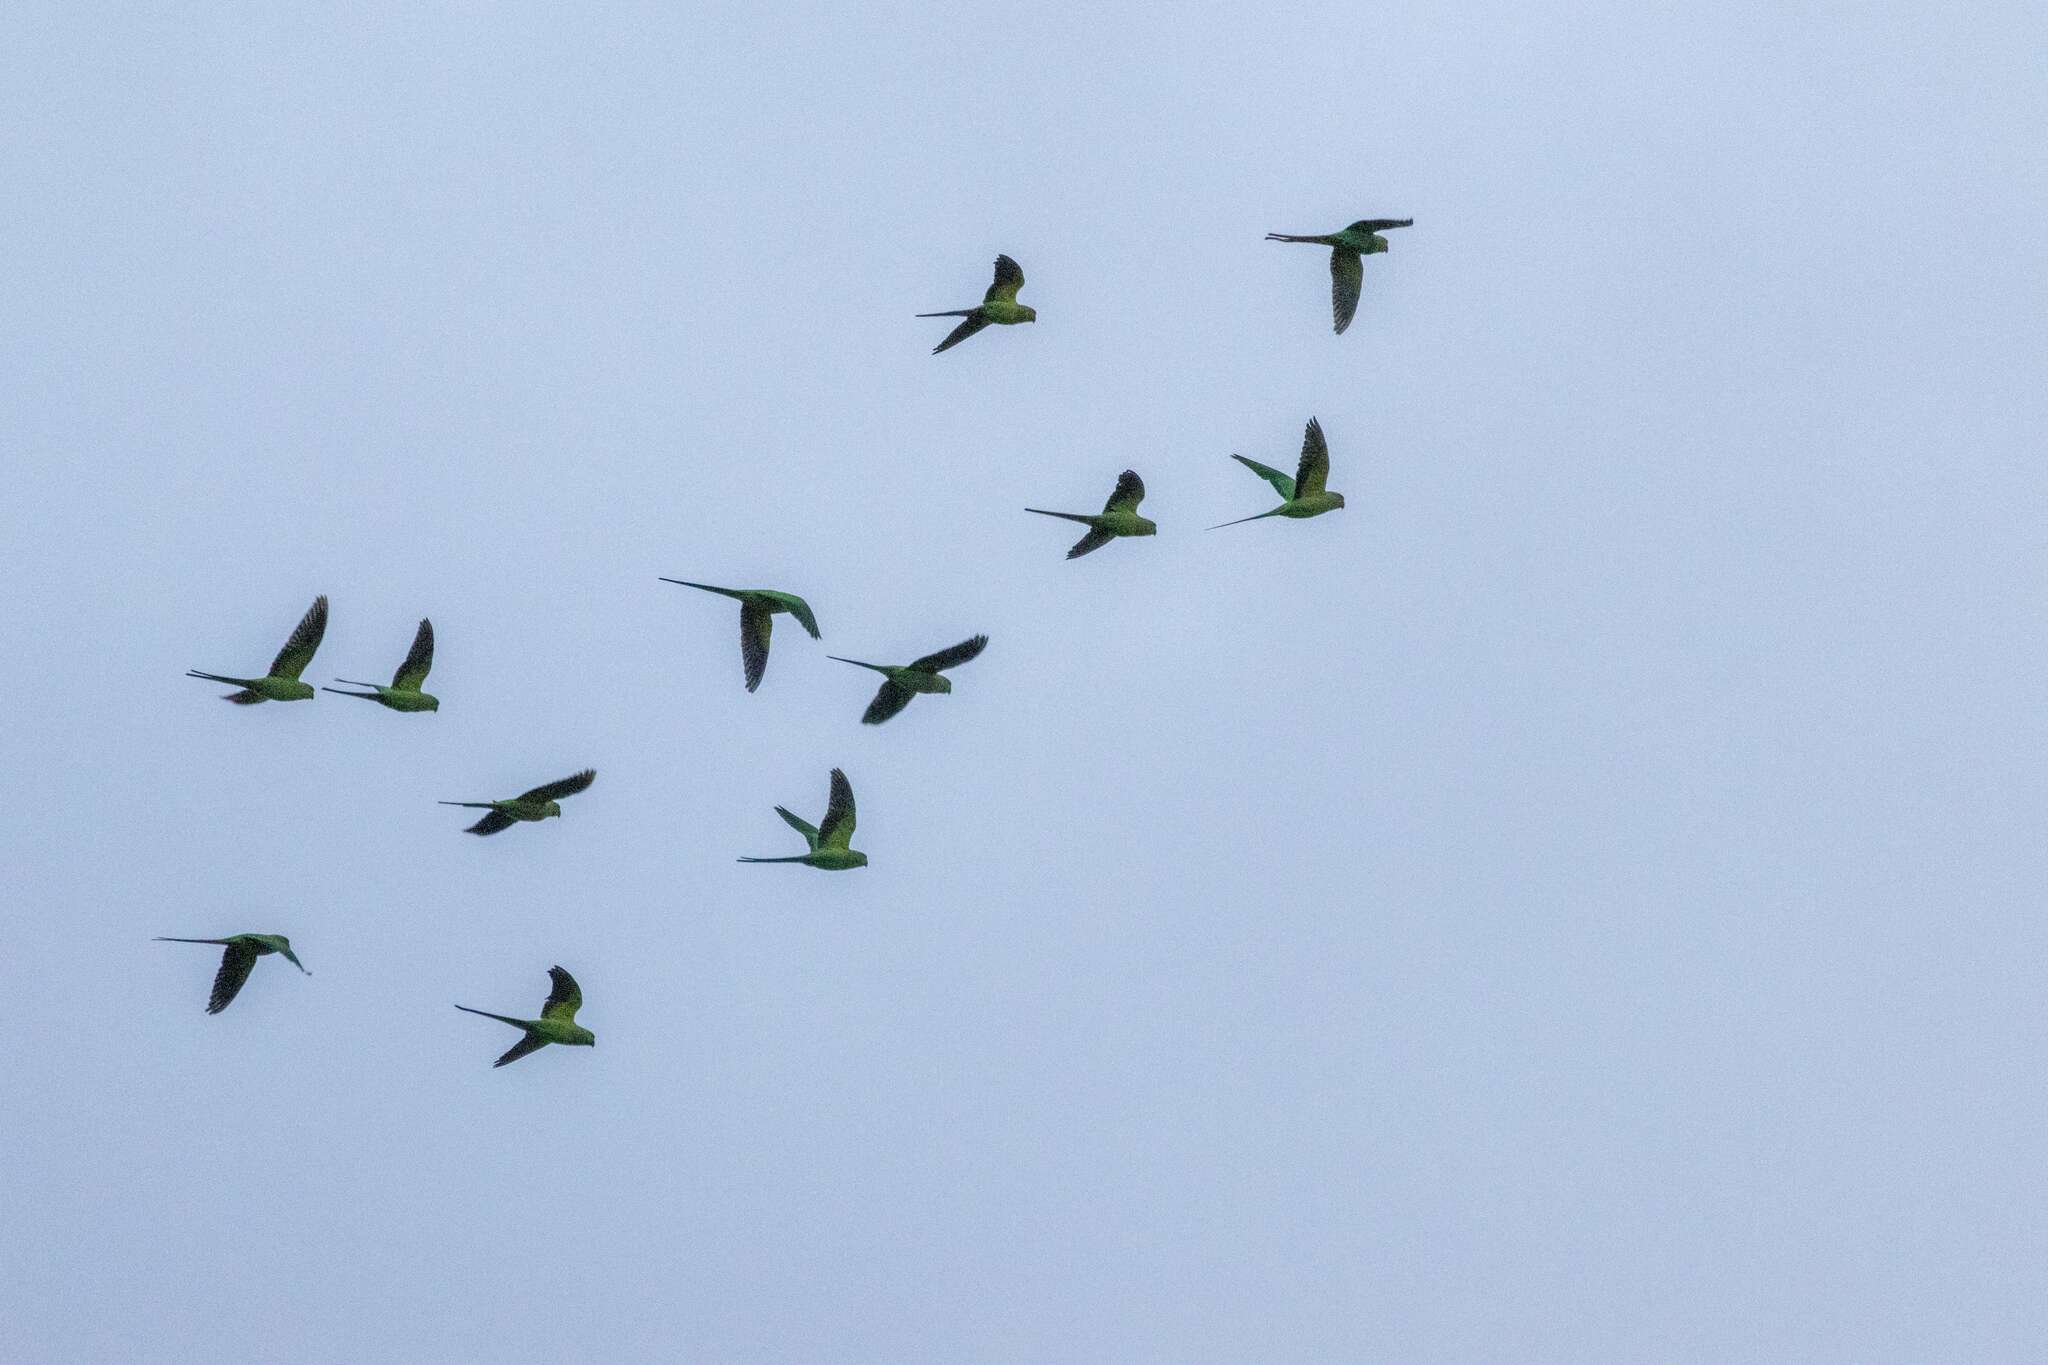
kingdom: Animalia
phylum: Chordata
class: Aves
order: Psittaciformes
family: Psittacidae
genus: Psittacula
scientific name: Psittacula krameri
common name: Rose-ringed parakeet
